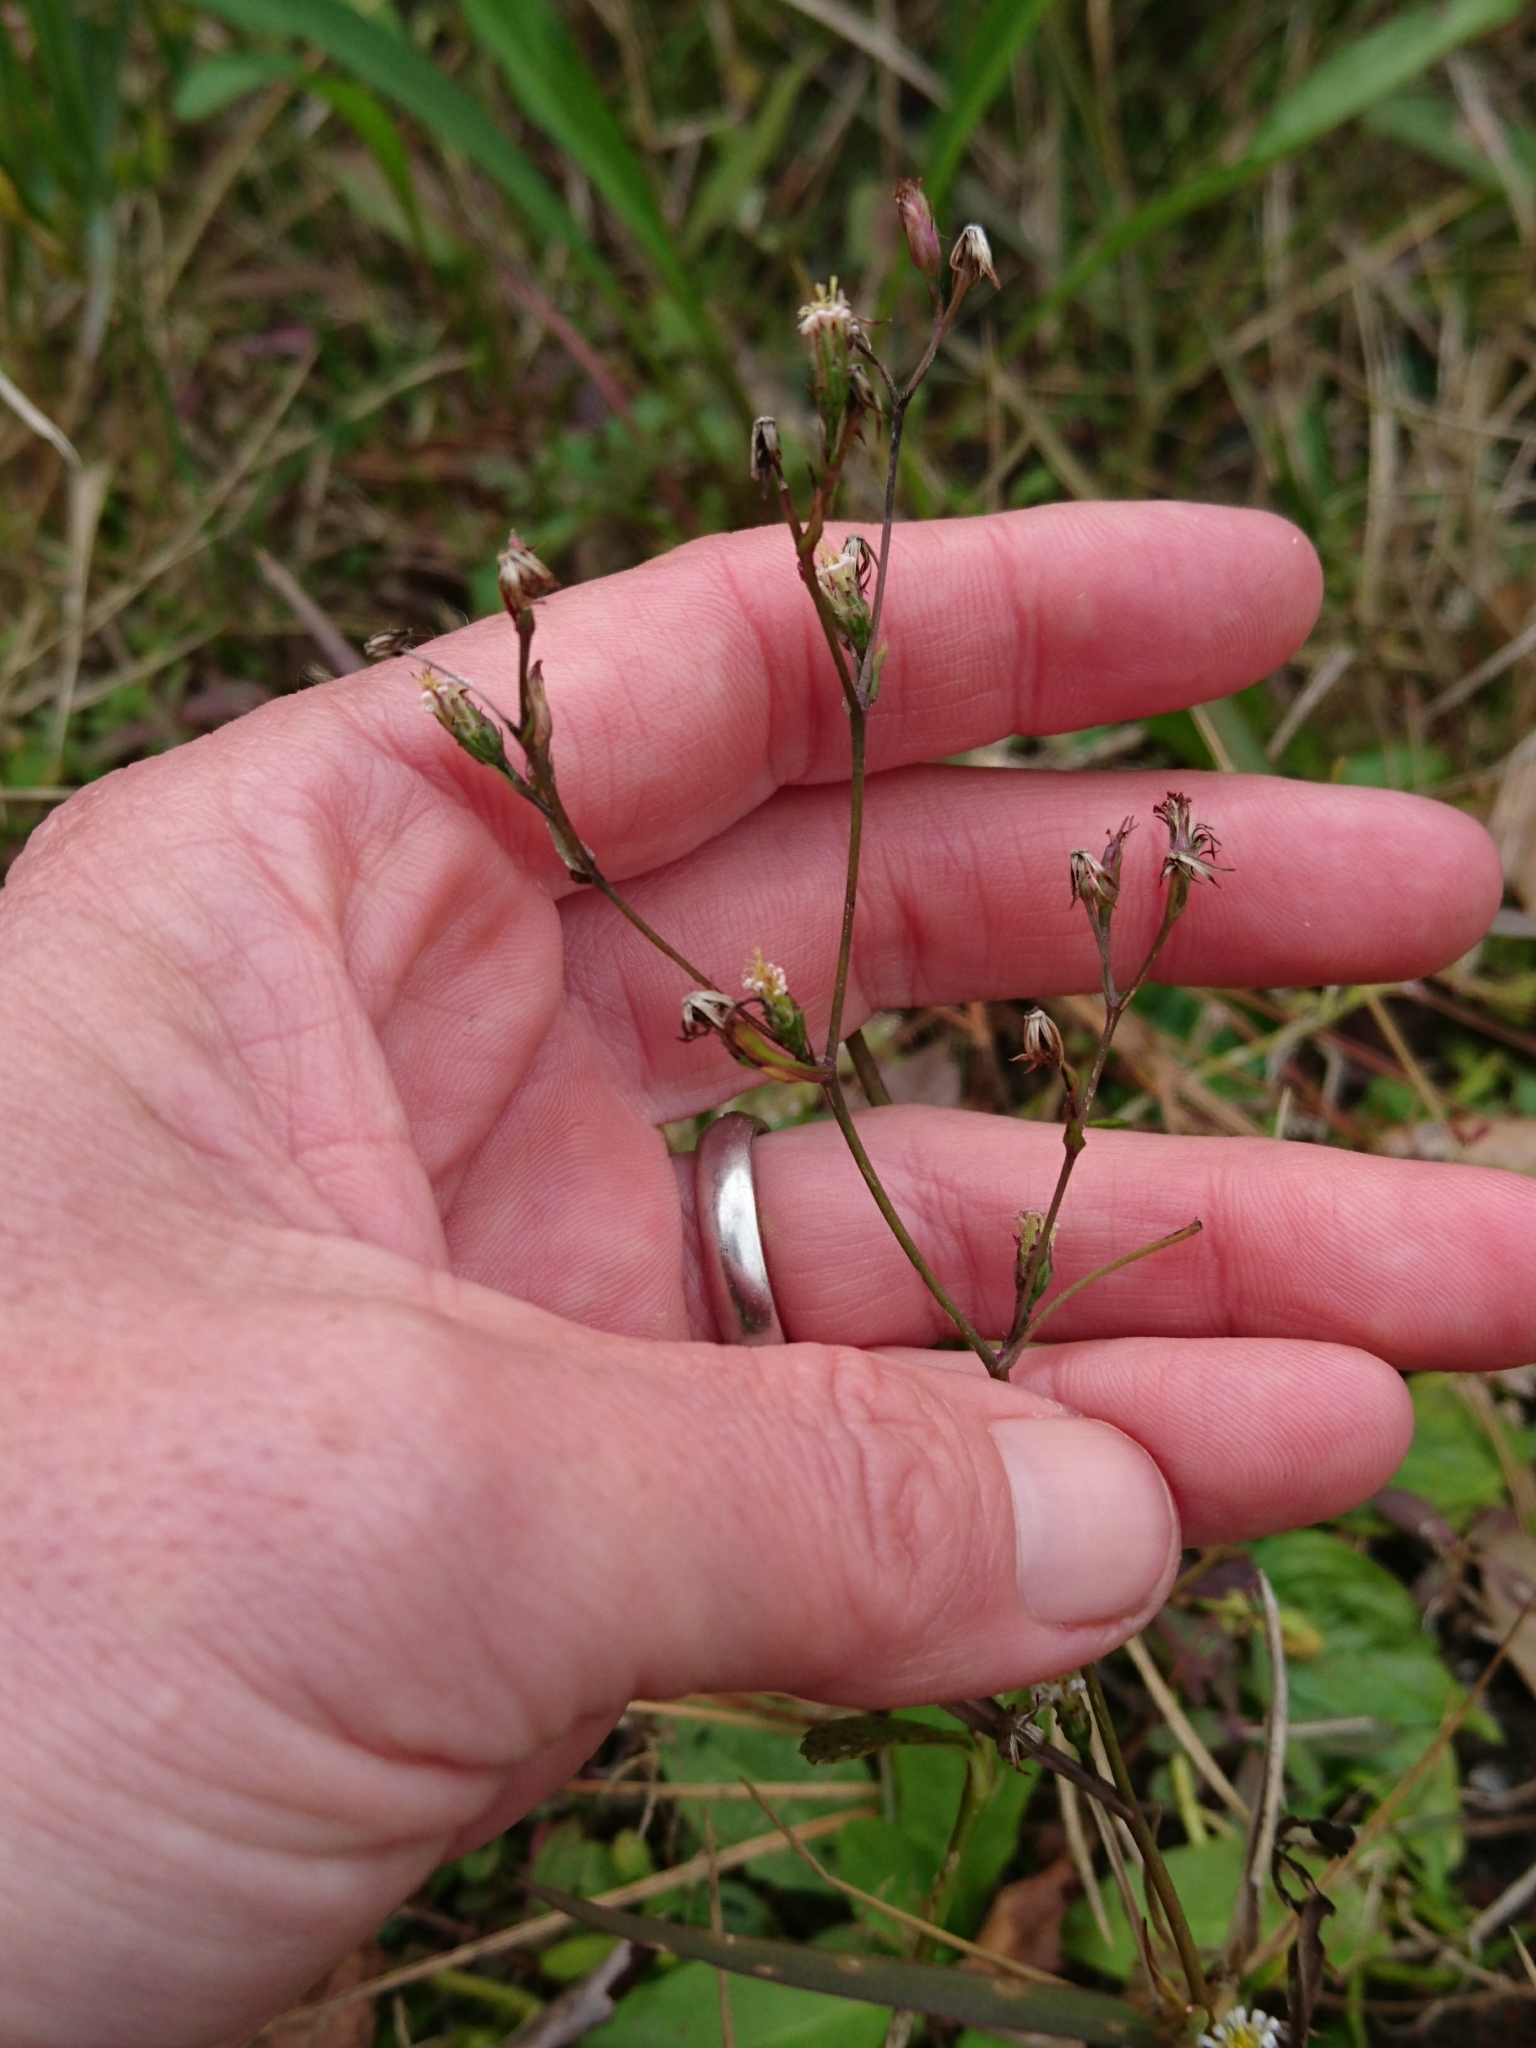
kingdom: Plantae
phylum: Tracheophyta
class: Magnoliopsida
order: Asterales
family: Asteraceae
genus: Symphyotrichum
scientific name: Symphyotrichum tenuifolium
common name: Perennial salt-marsh aster
